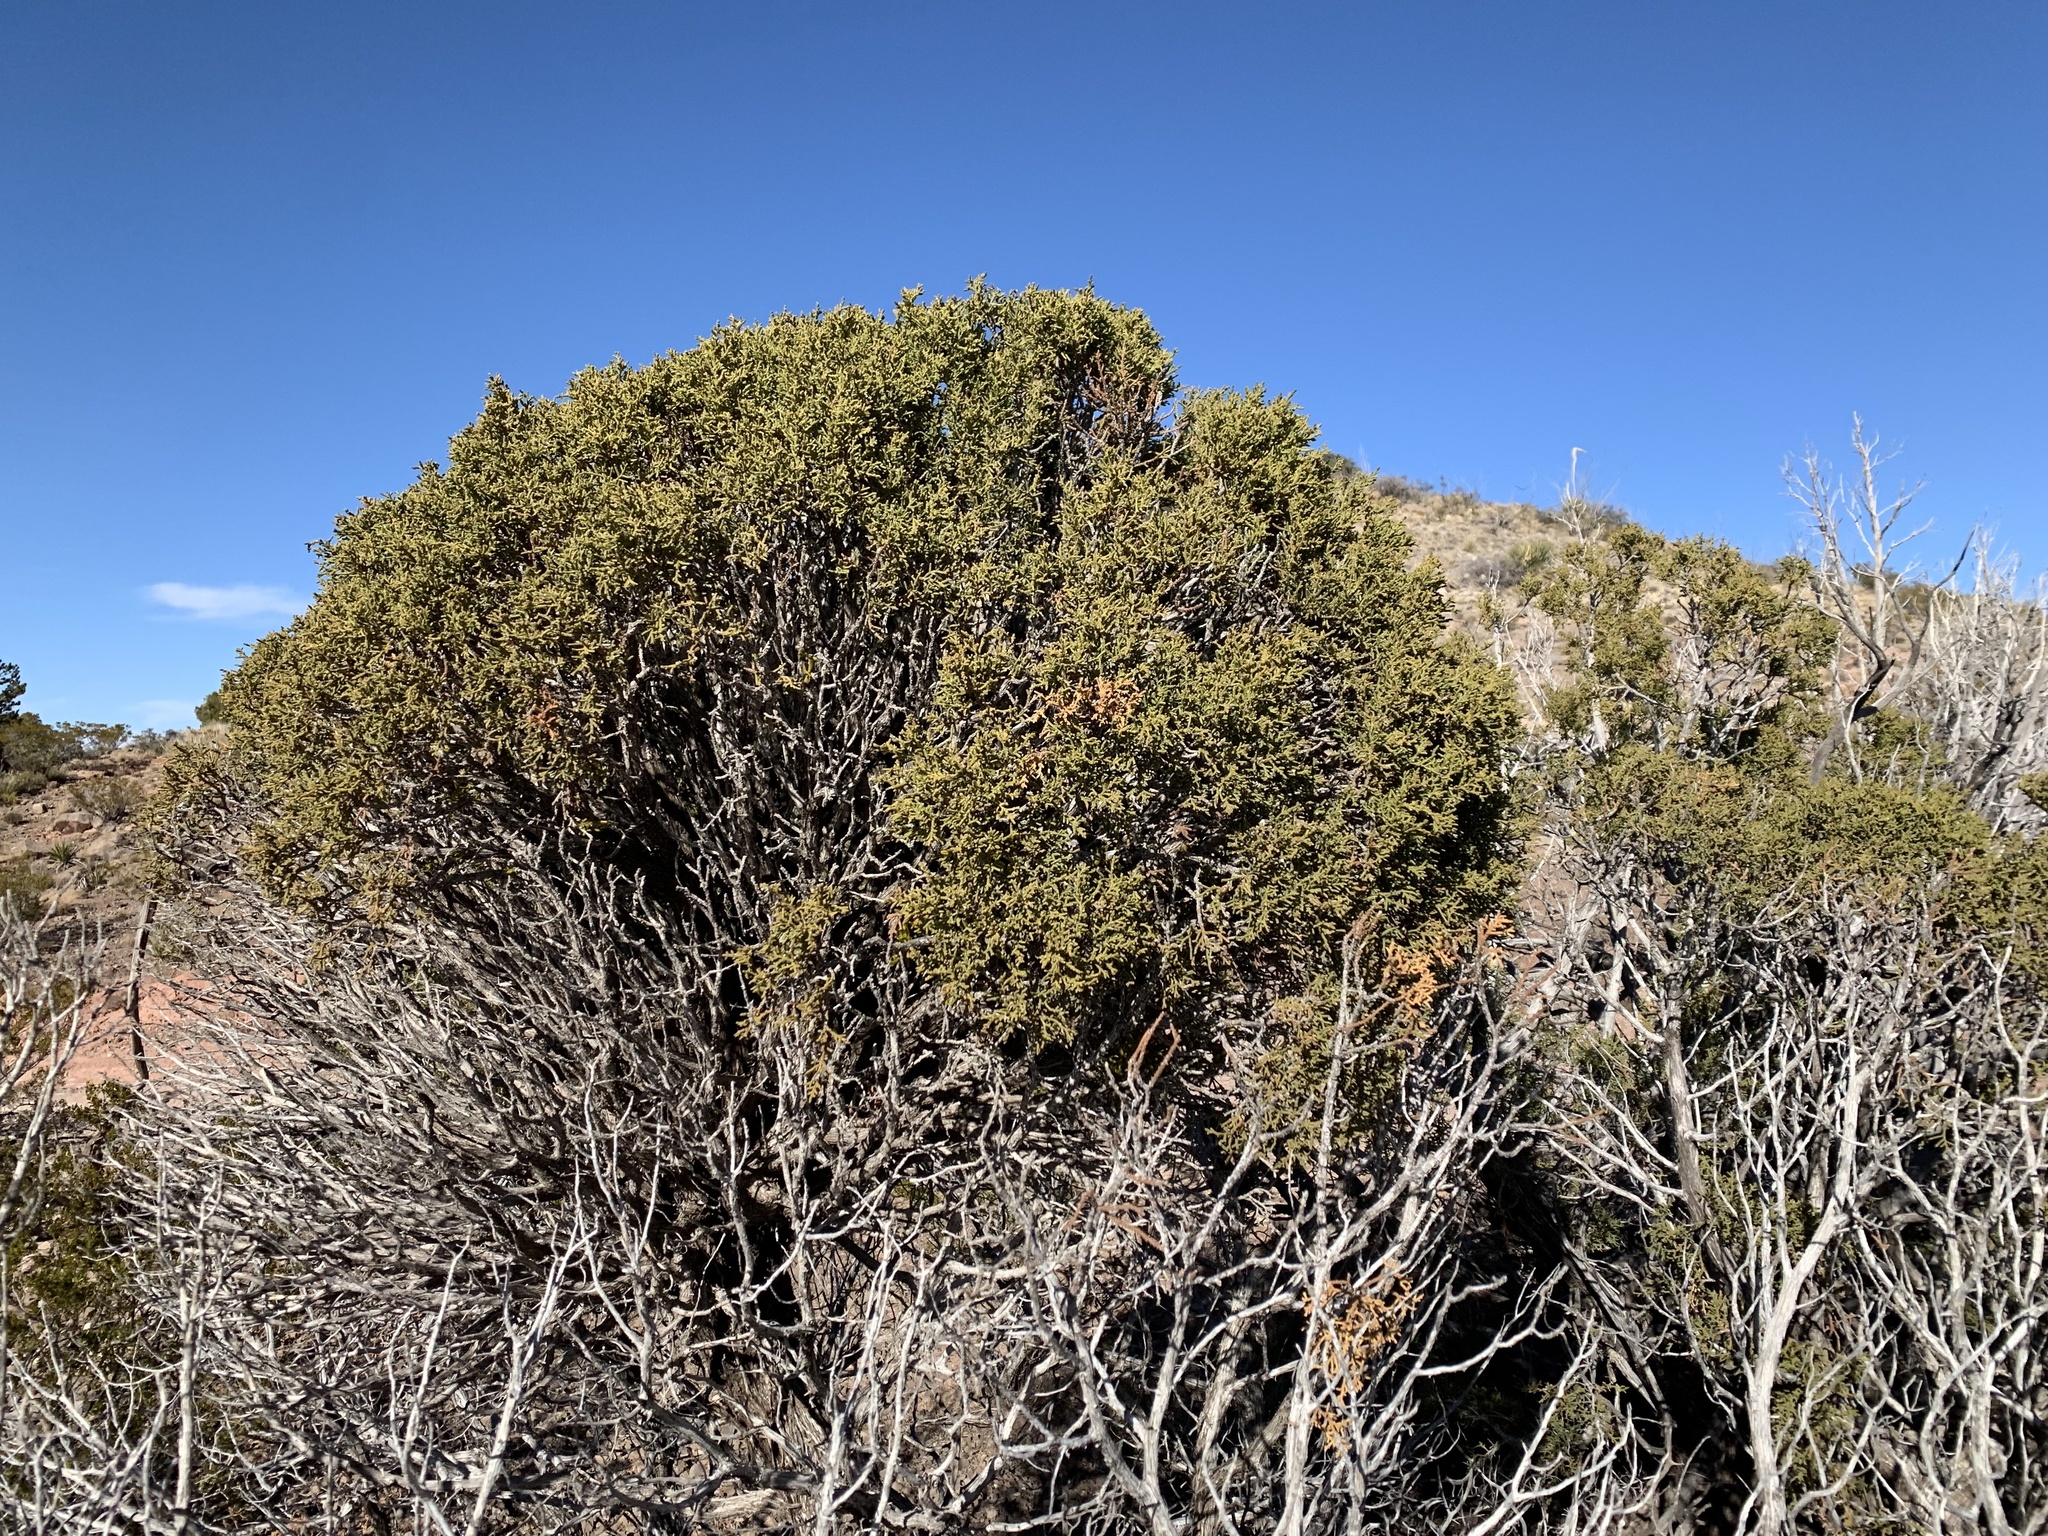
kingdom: Plantae
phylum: Tracheophyta
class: Pinopsida
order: Pinales
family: Cupressaceae
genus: Juniperus
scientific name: Juniperus monosperma
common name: One-seed juniper
